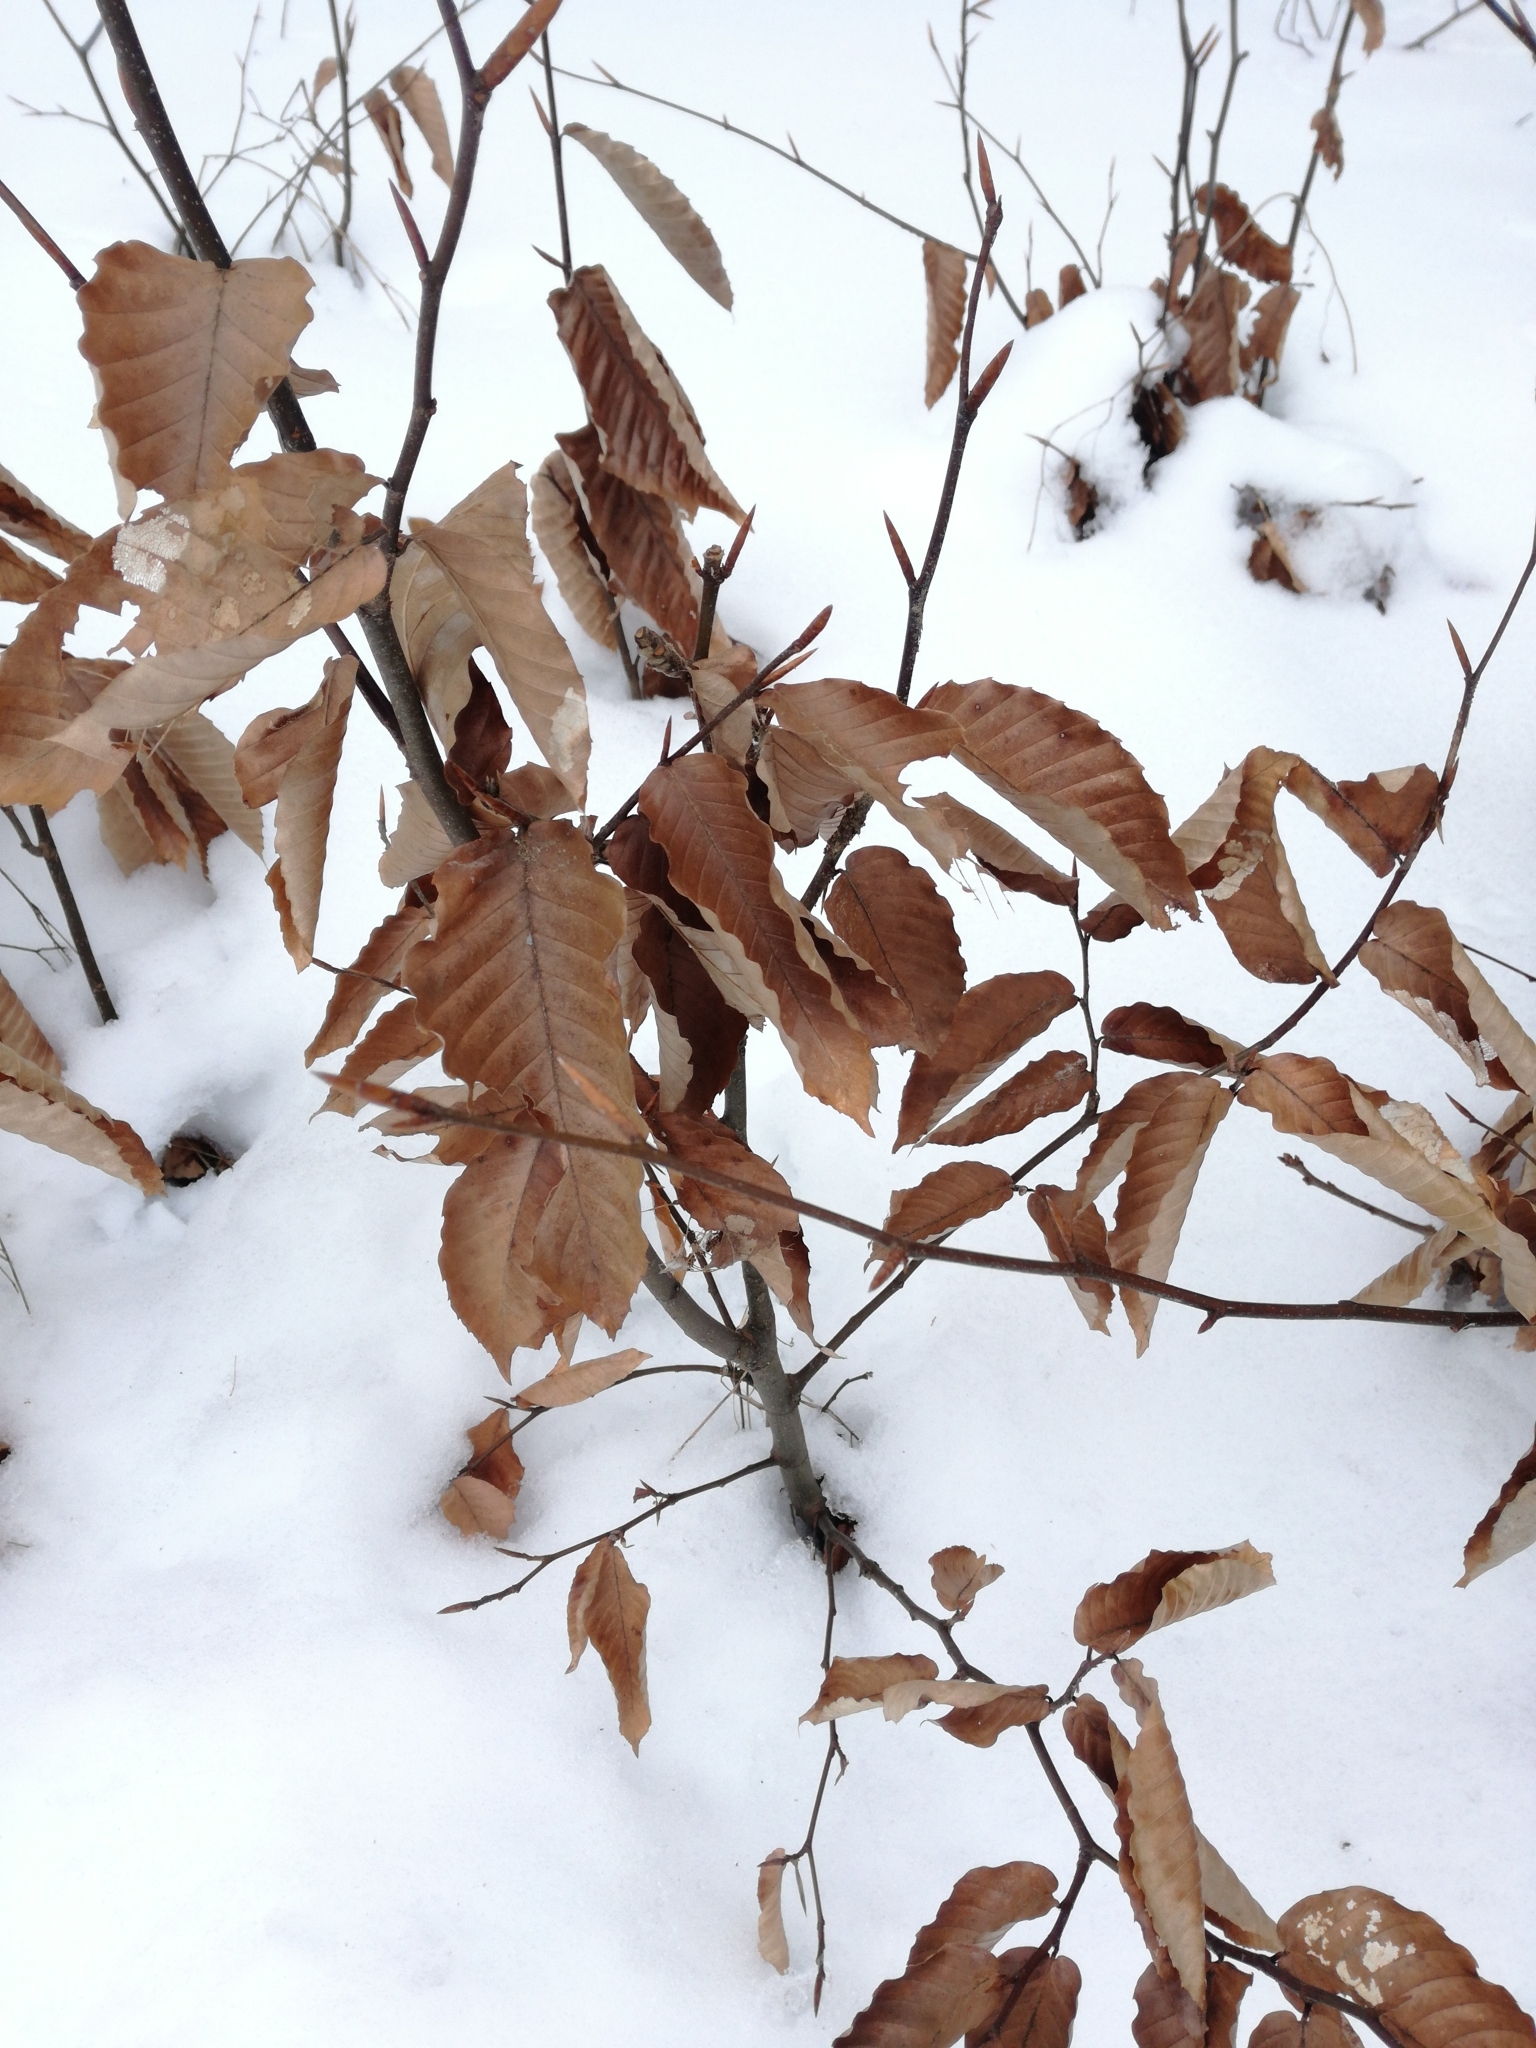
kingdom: Plantae
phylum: Tracheophyta
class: Magnoliopsida
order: Fagales
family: Fagaceae
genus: Fagus
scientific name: Fagus grandifolia
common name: American beech
